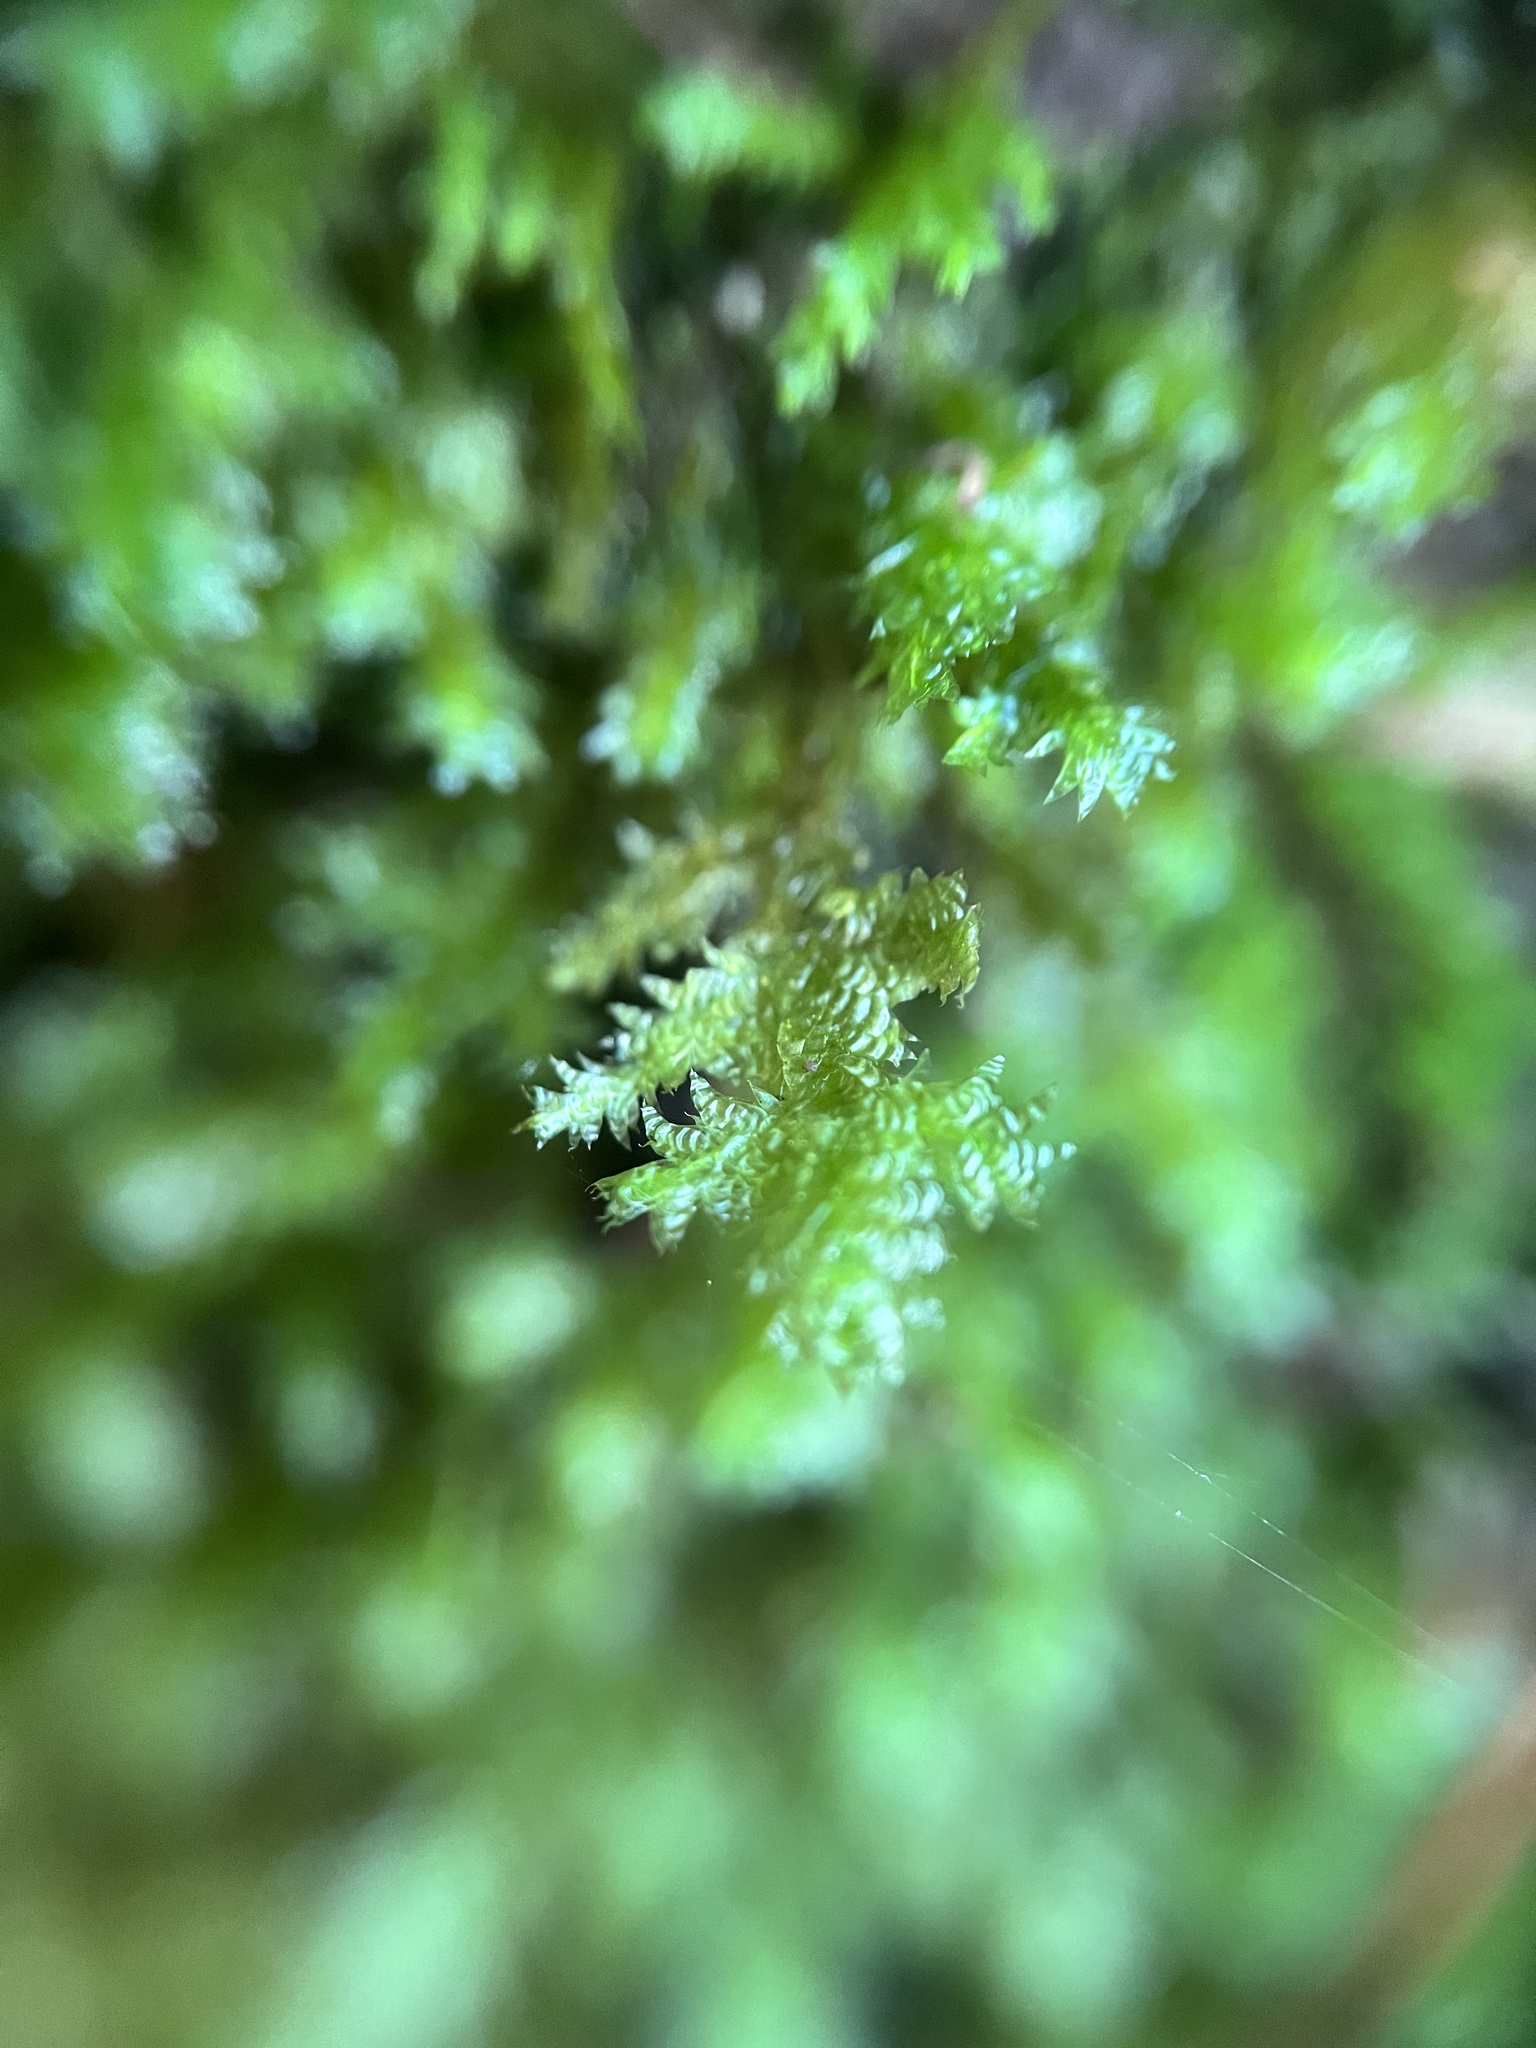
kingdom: Plantae
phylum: Bryophyta
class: Bryopsida
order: Hypnales
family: Neckeraceae
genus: Neckera
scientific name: Neckera pennata
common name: Feathery neckera
